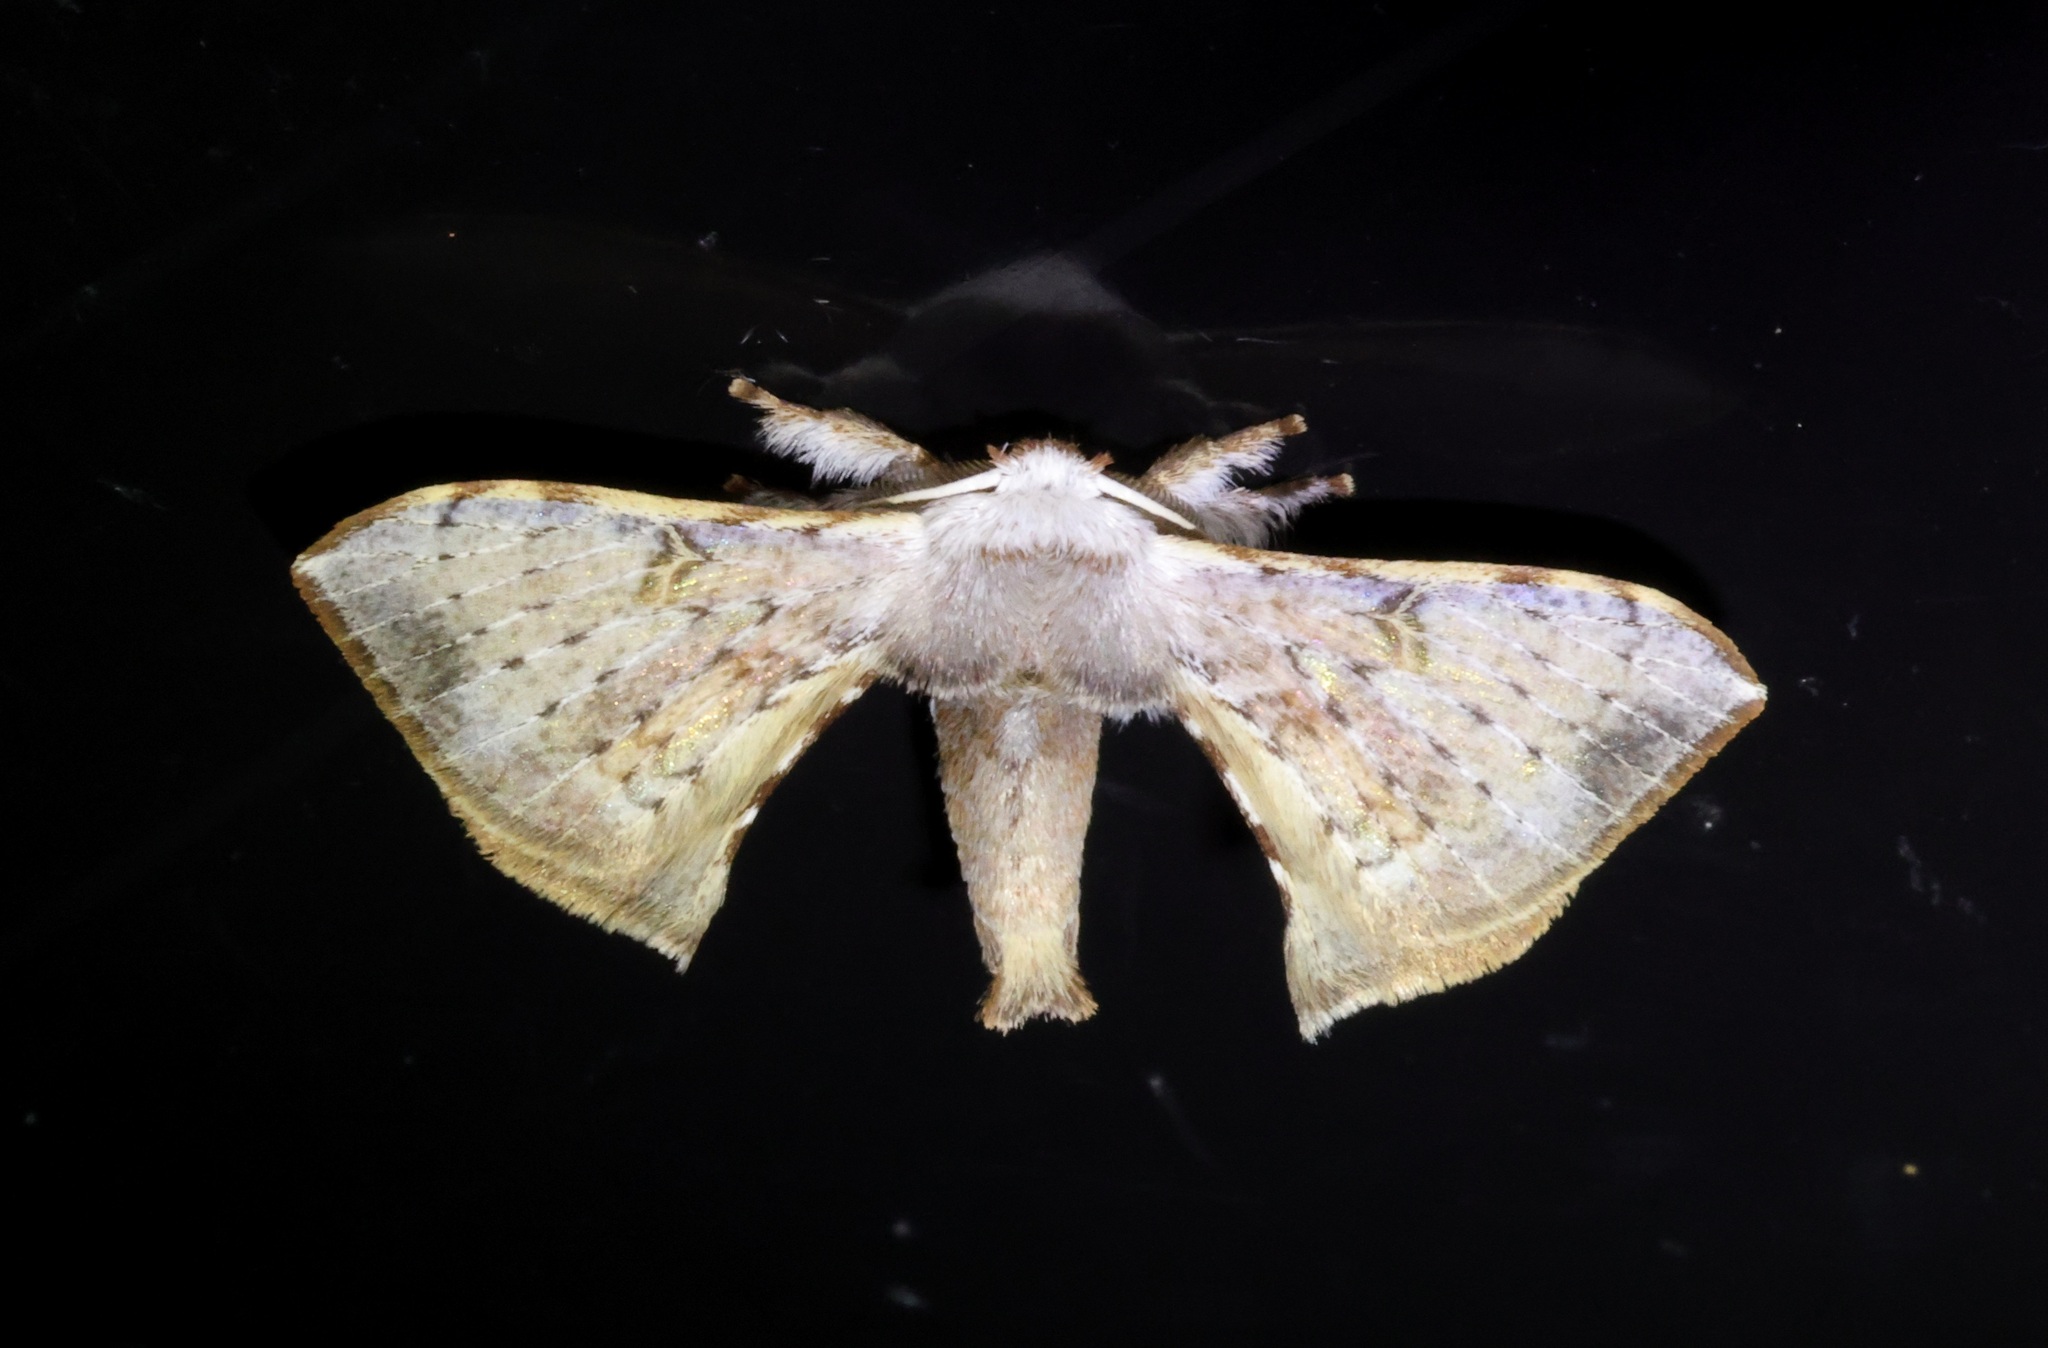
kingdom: Animalia
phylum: Arthropoda
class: Insecta
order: Lepidoptera
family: Bombycidae
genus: Ocinara
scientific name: Ocinara albicollis
